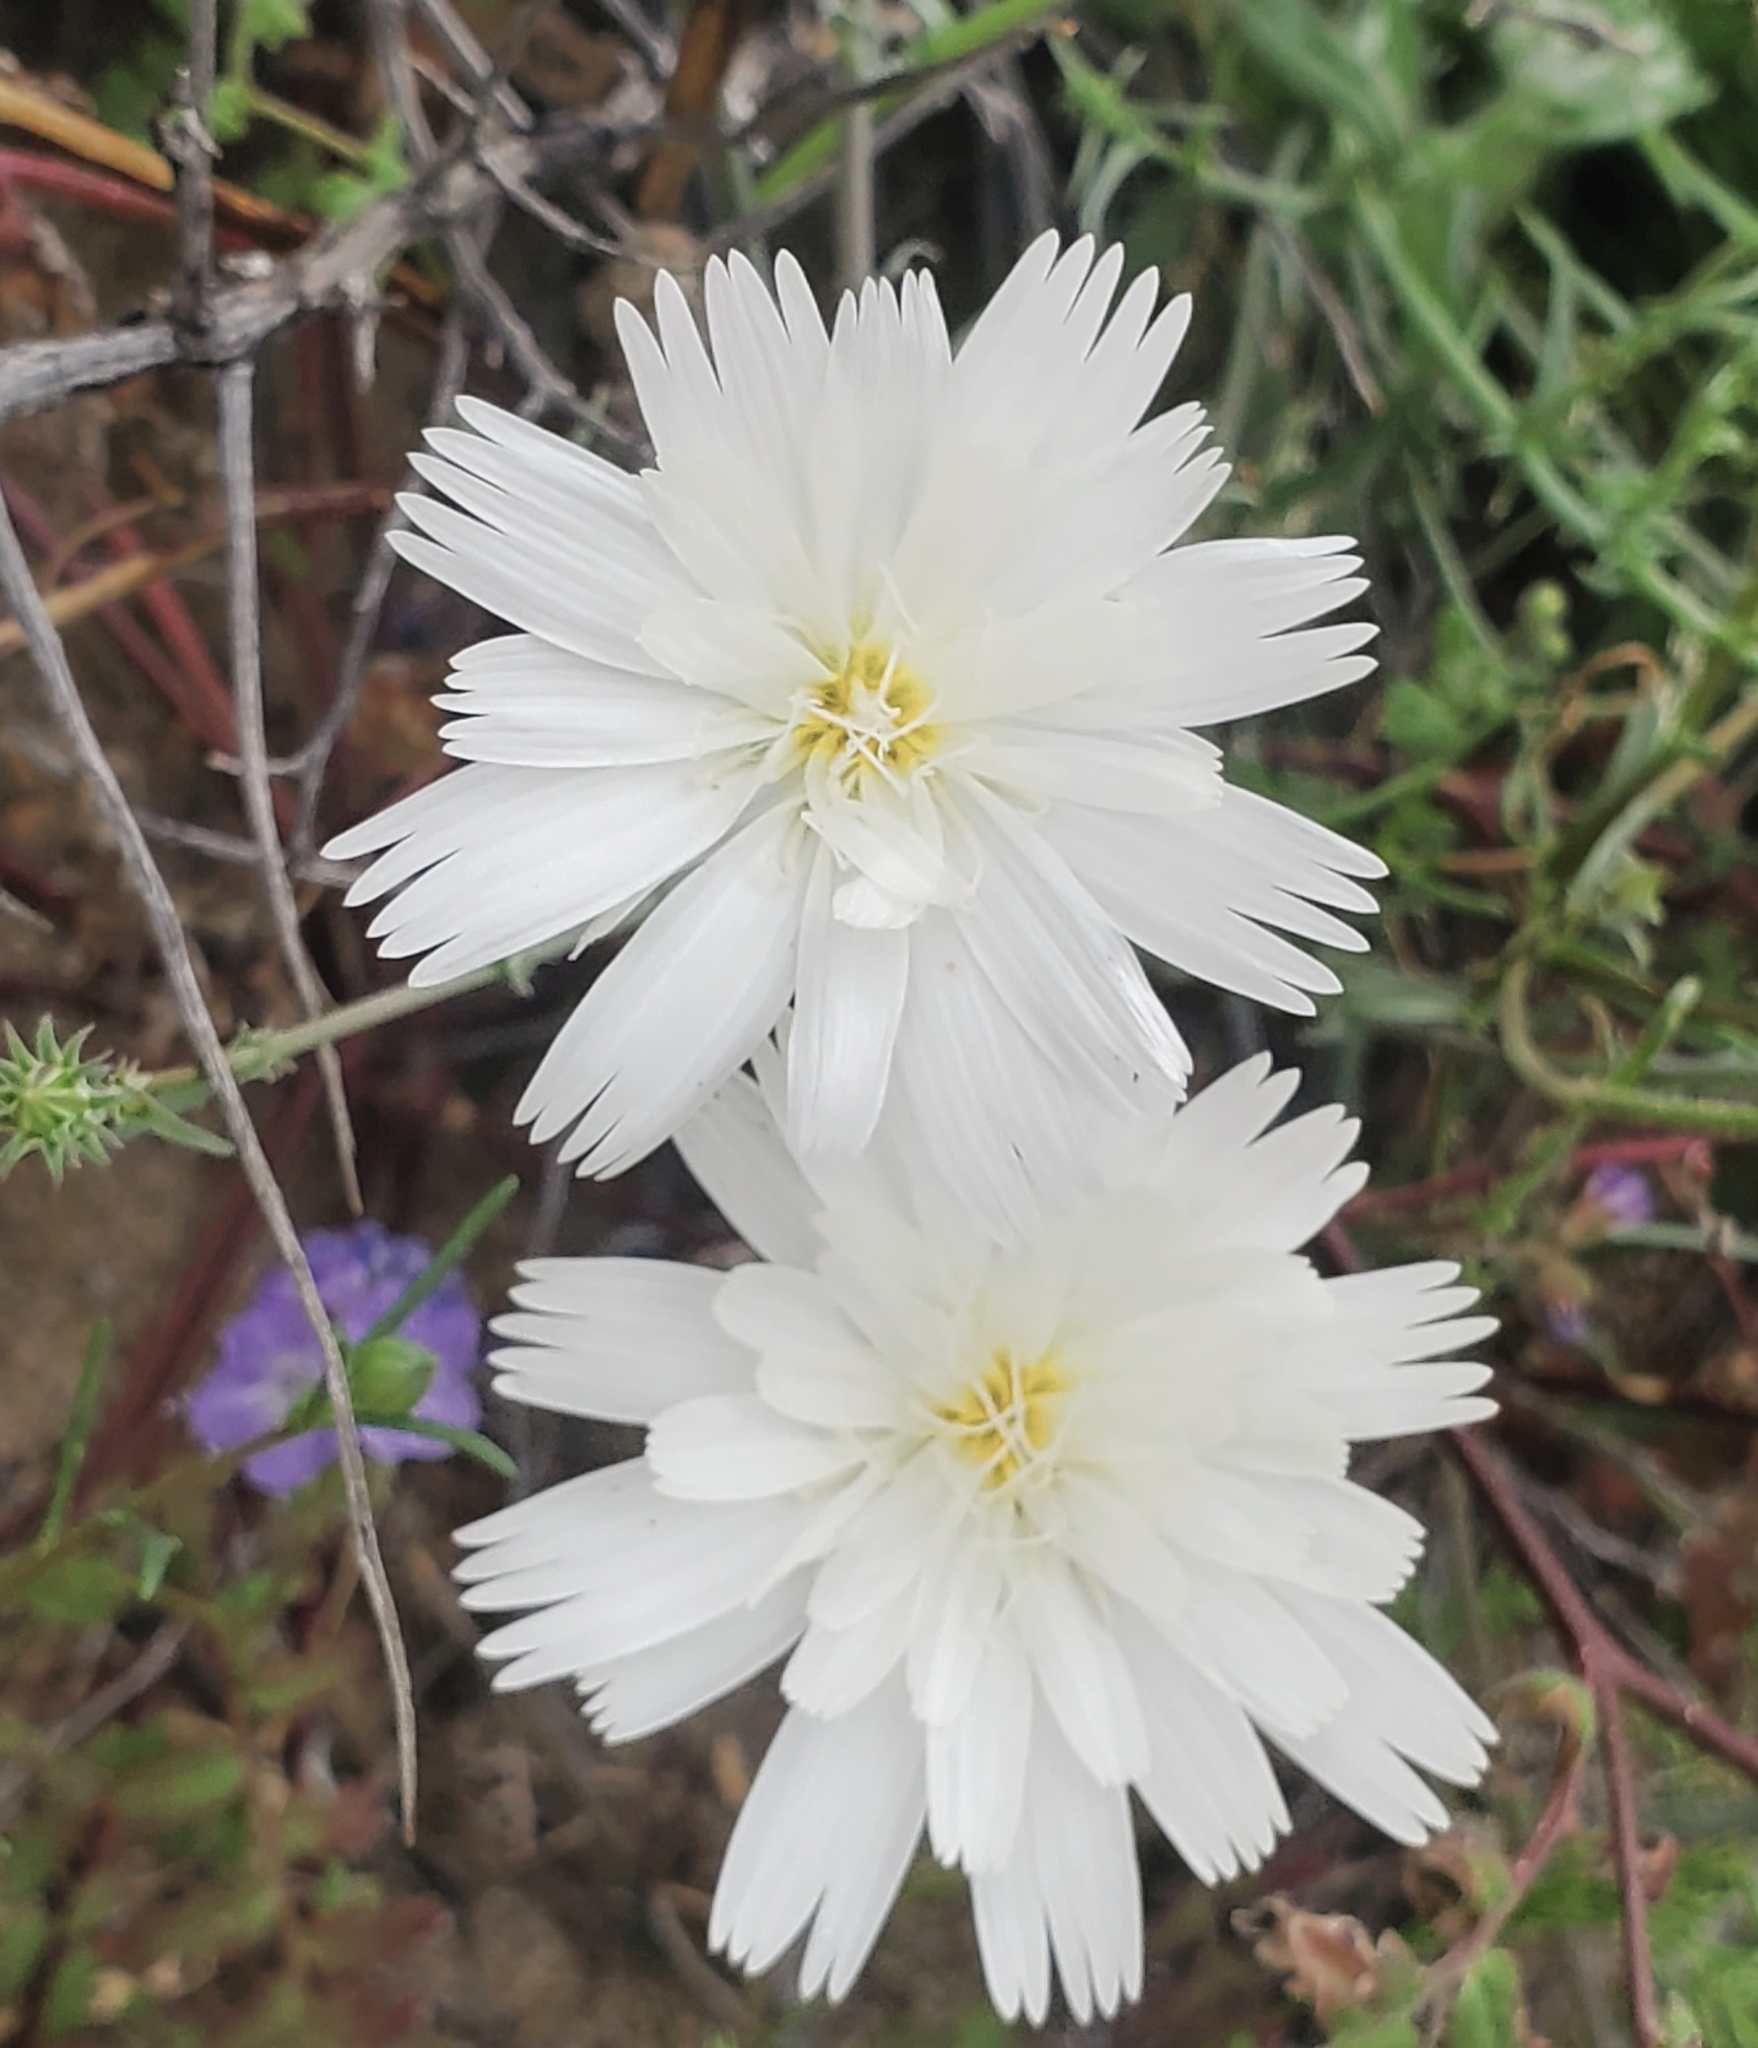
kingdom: Plantae
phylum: Tracheophyta
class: Magnoliopsida
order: Asterales
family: Asteraceae
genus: Rafinesquia
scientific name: Rafinesquia neomexicana
